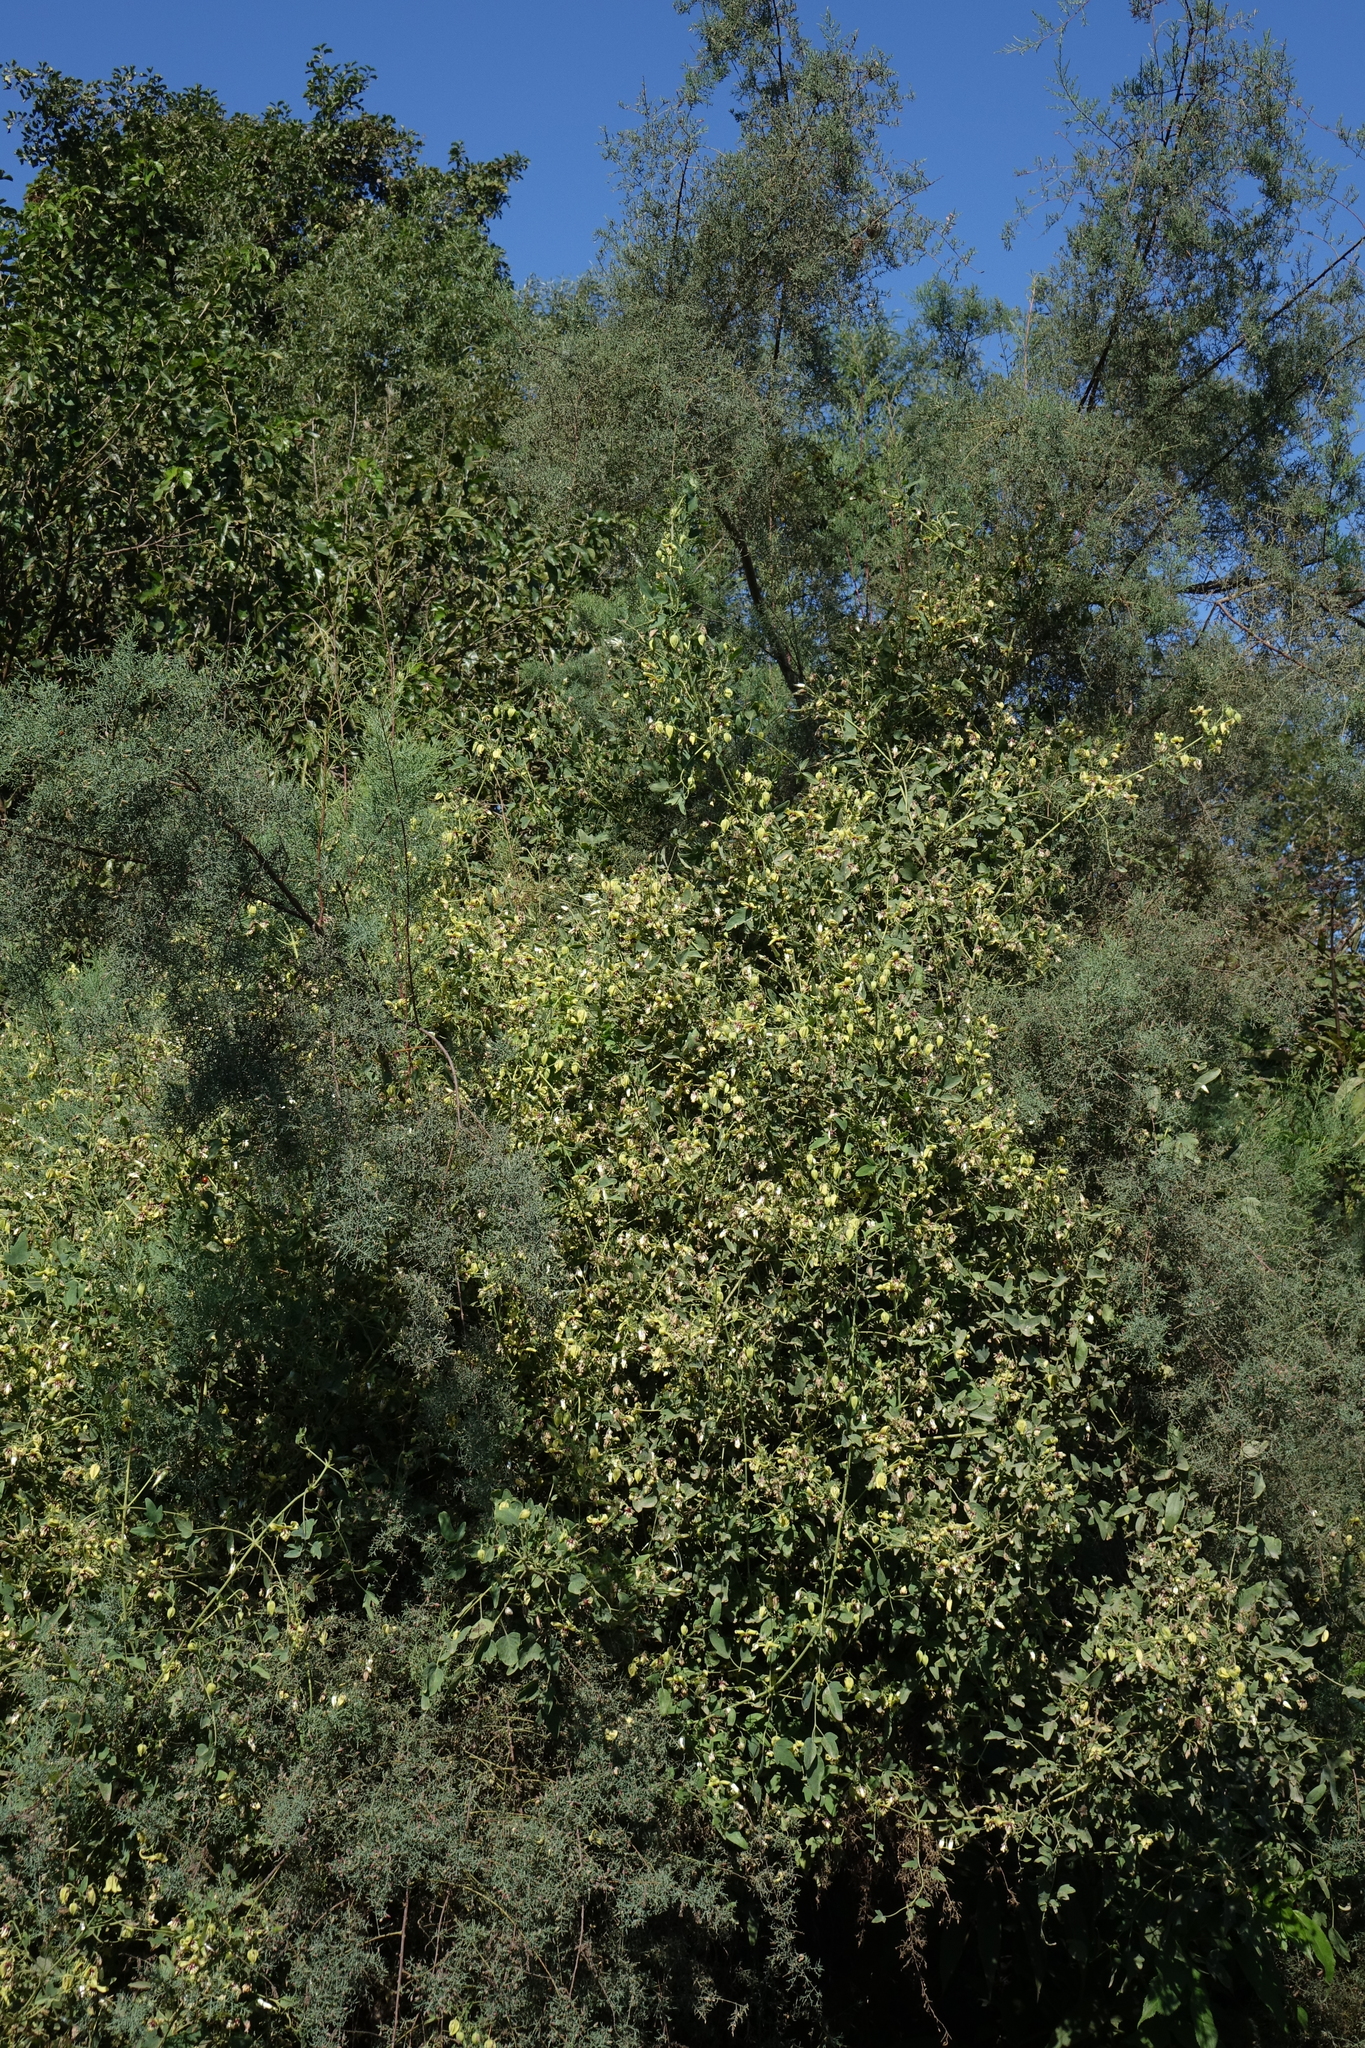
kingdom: Plantae
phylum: Tracheophyta
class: Magnoliopsida
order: Ranunculales
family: Ranunculaceae
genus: Clematis
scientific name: Clematis orientalis
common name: Oriental virgin's-bower
